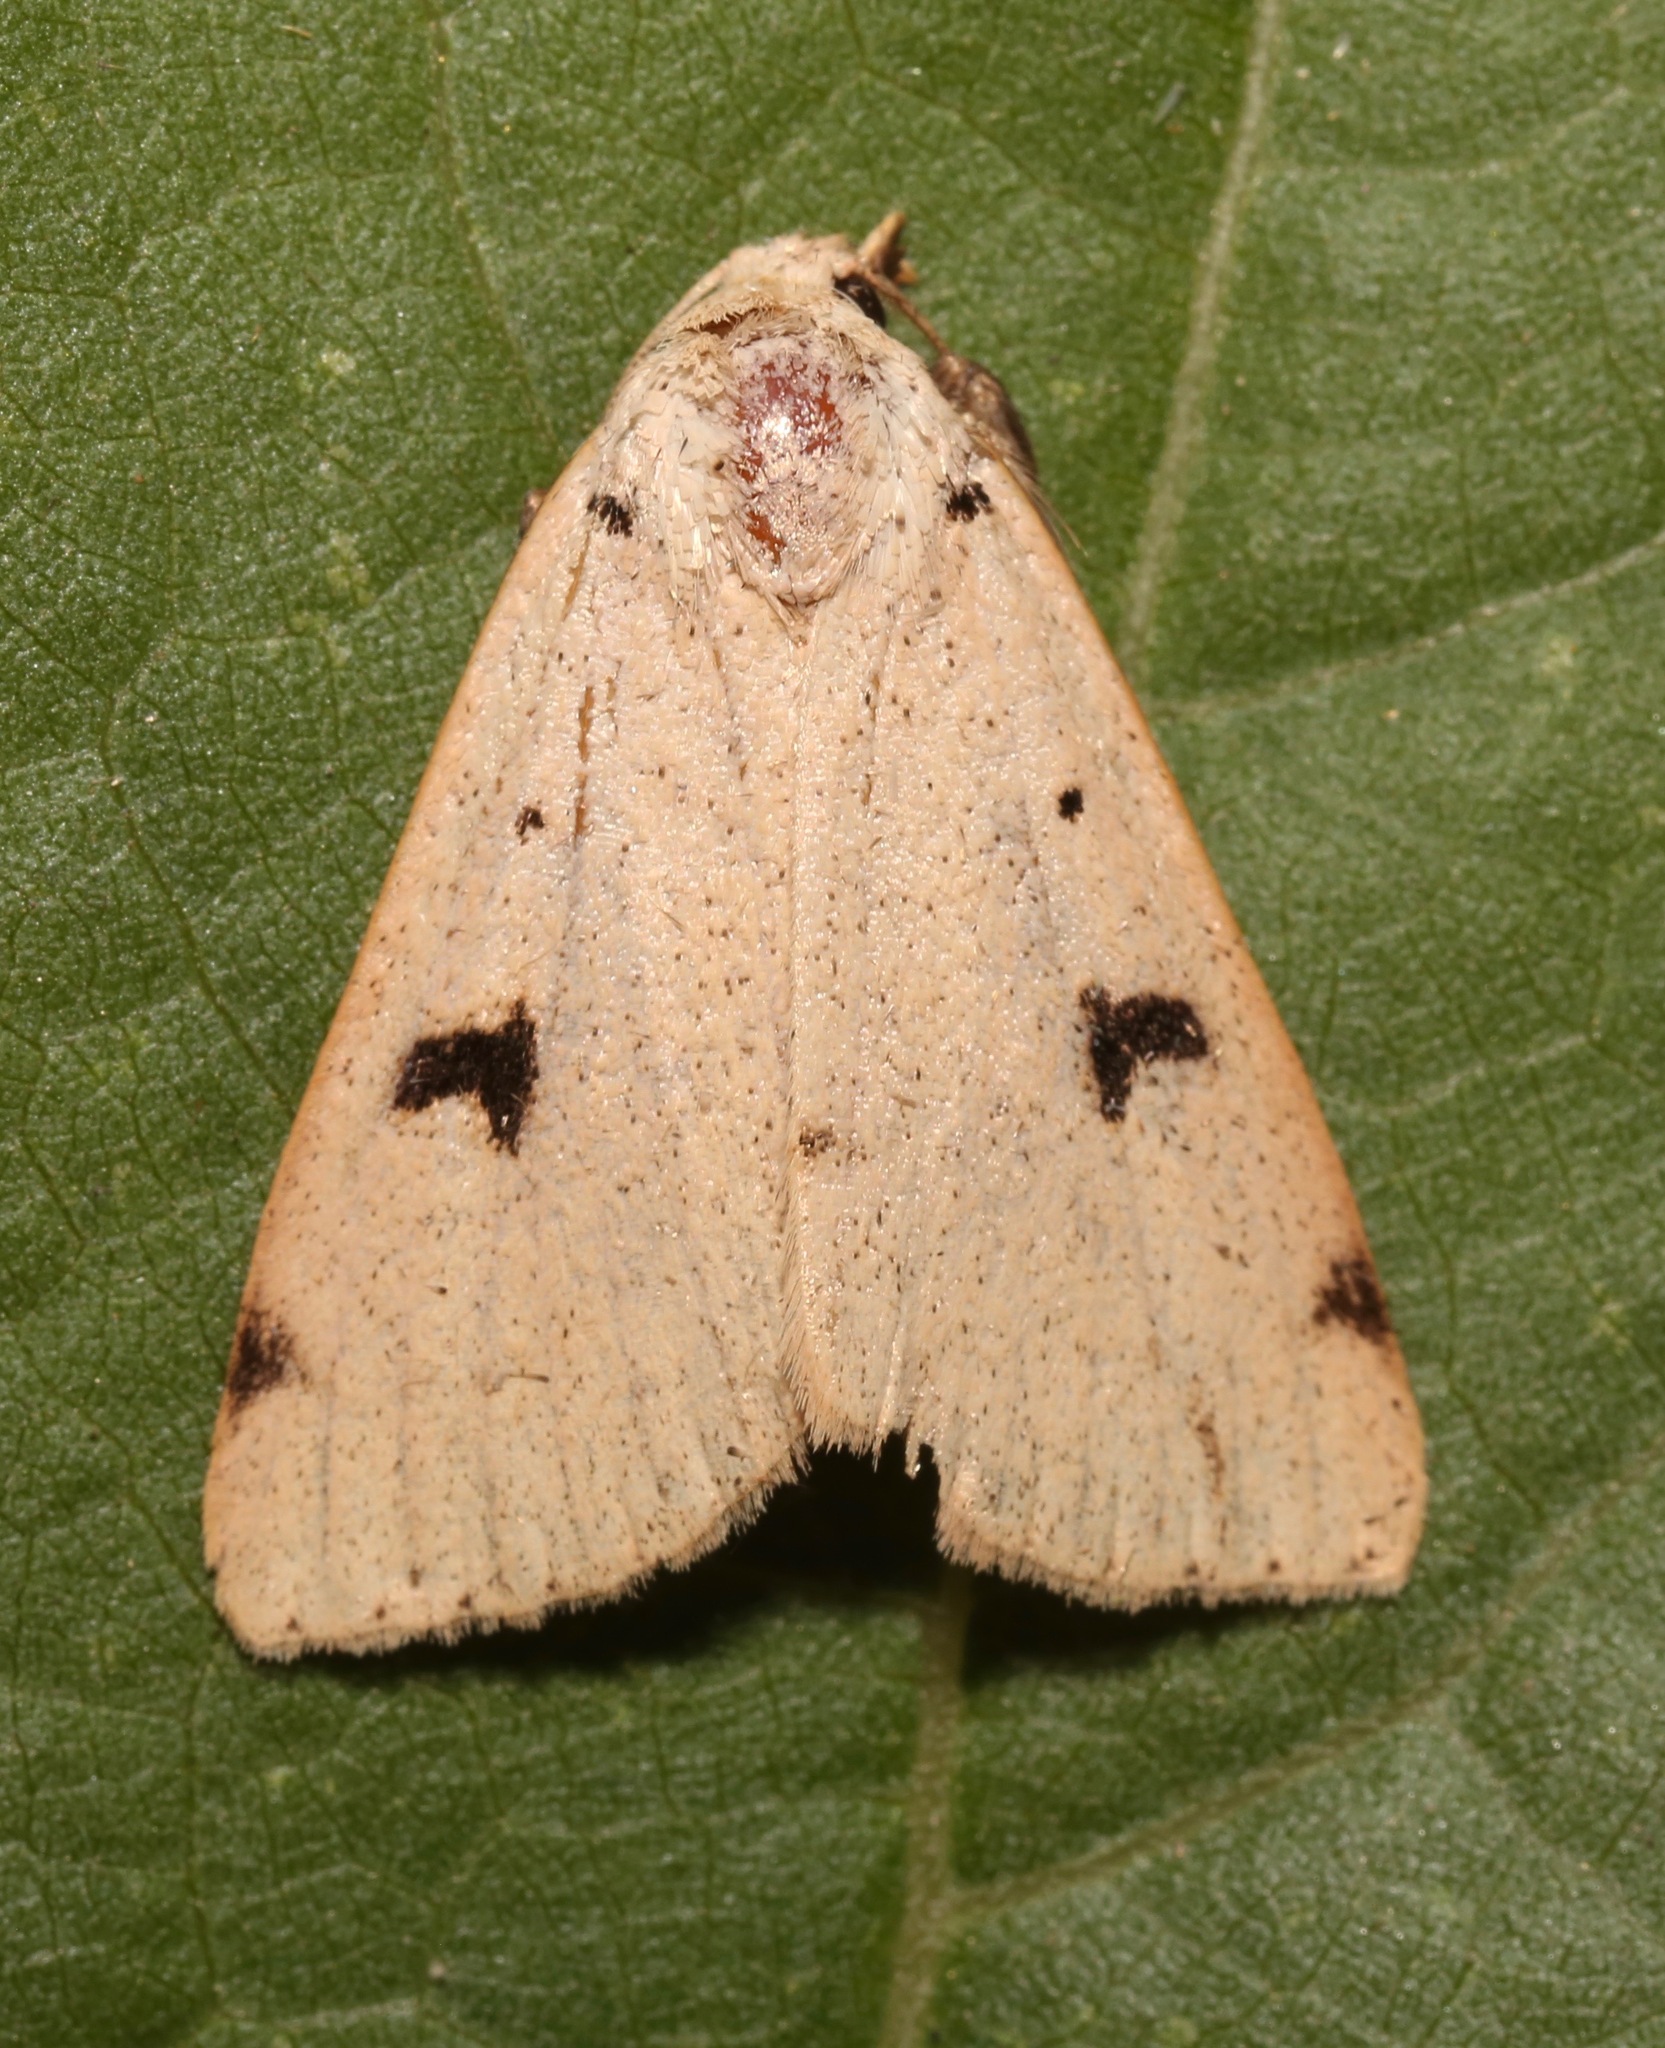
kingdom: Animalia
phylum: Arthropoda
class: Insecta
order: Lepidoptera
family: Erebidae
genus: Scolecocampa
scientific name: Scolecocampa atriluna
